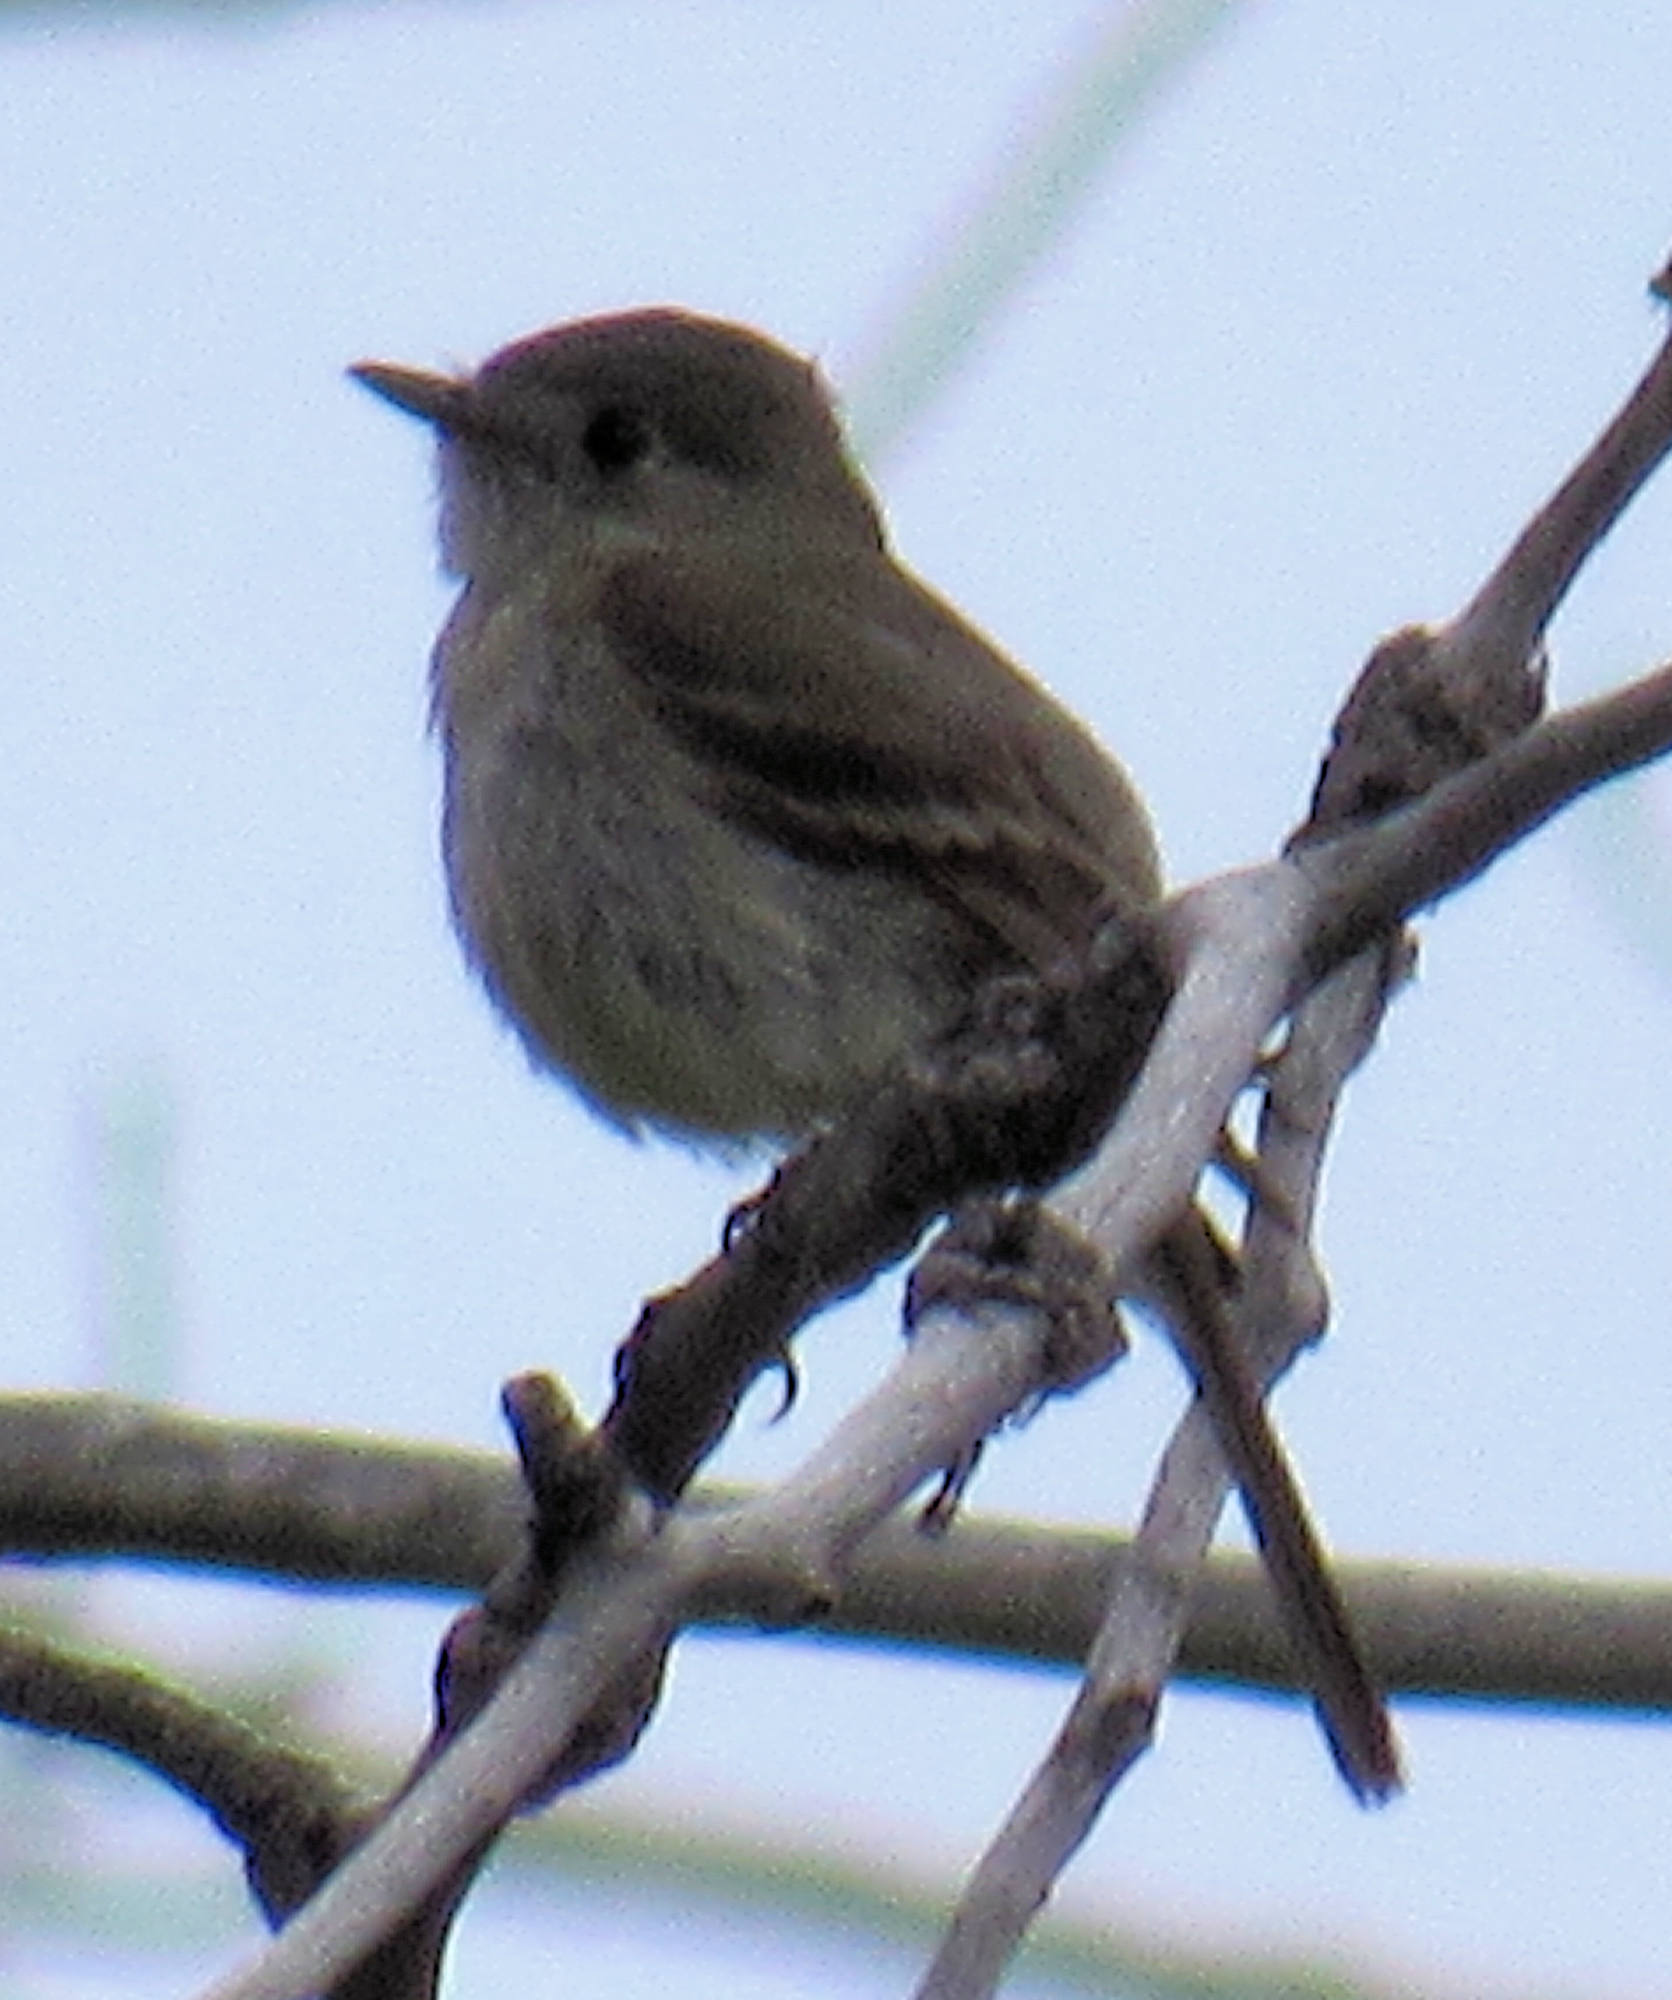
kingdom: Animalia
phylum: Chordata
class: Aves
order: Passeriformes
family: Tyrannidae
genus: Empidonax
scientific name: Empidonax oberholseri
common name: Dusky flycatcher
